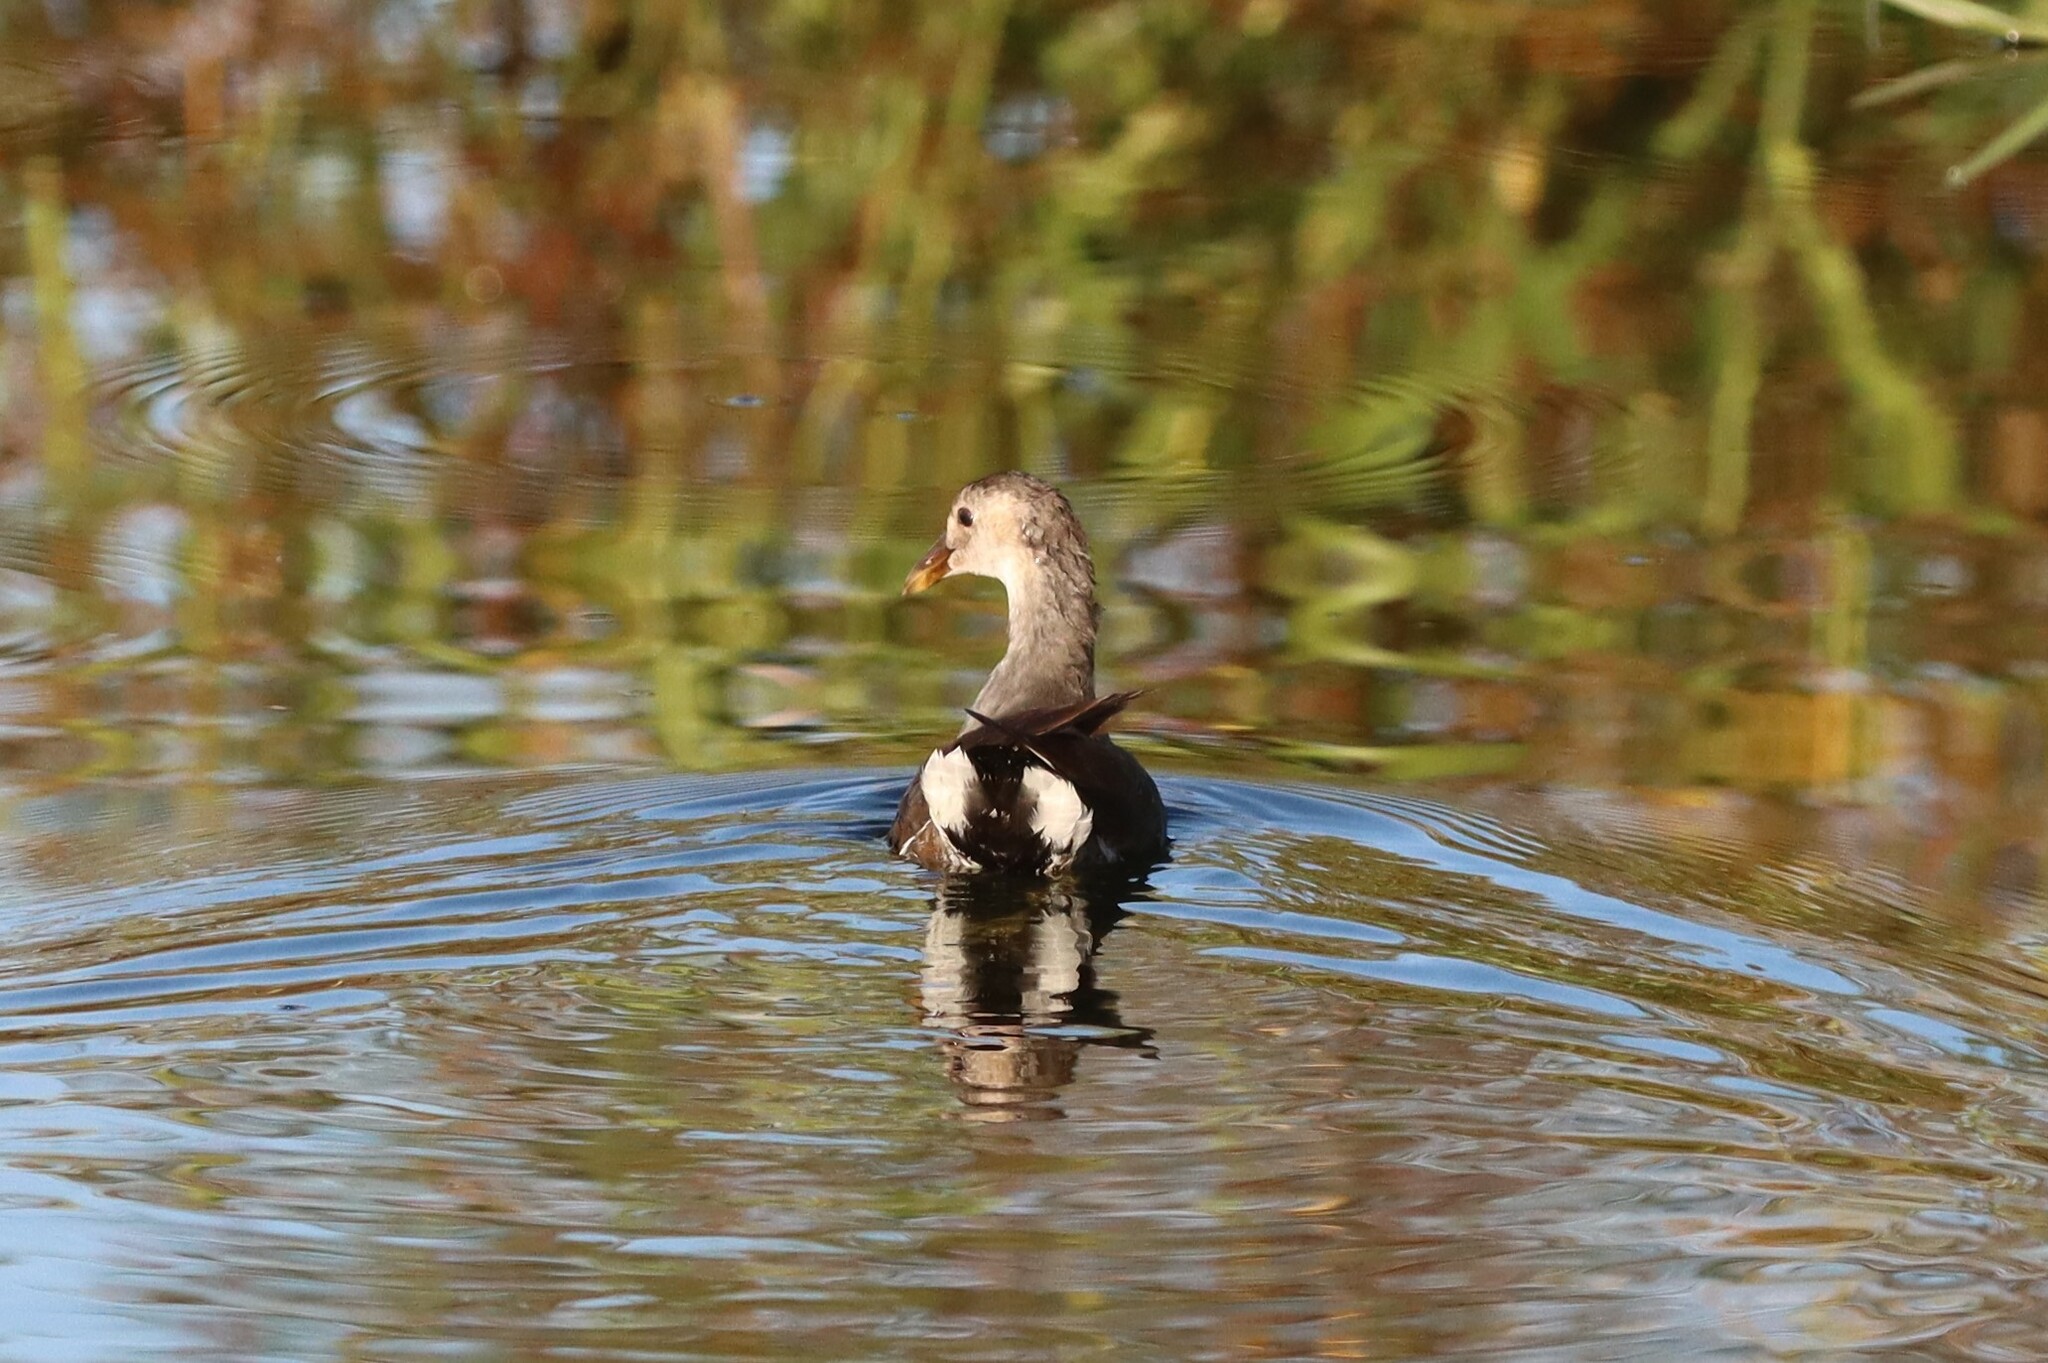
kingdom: Animalia
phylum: Chordata
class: Aves
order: Gruiformes
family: Rallidae
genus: Gallinula
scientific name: Gallinula chloropus
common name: Common moorhen
